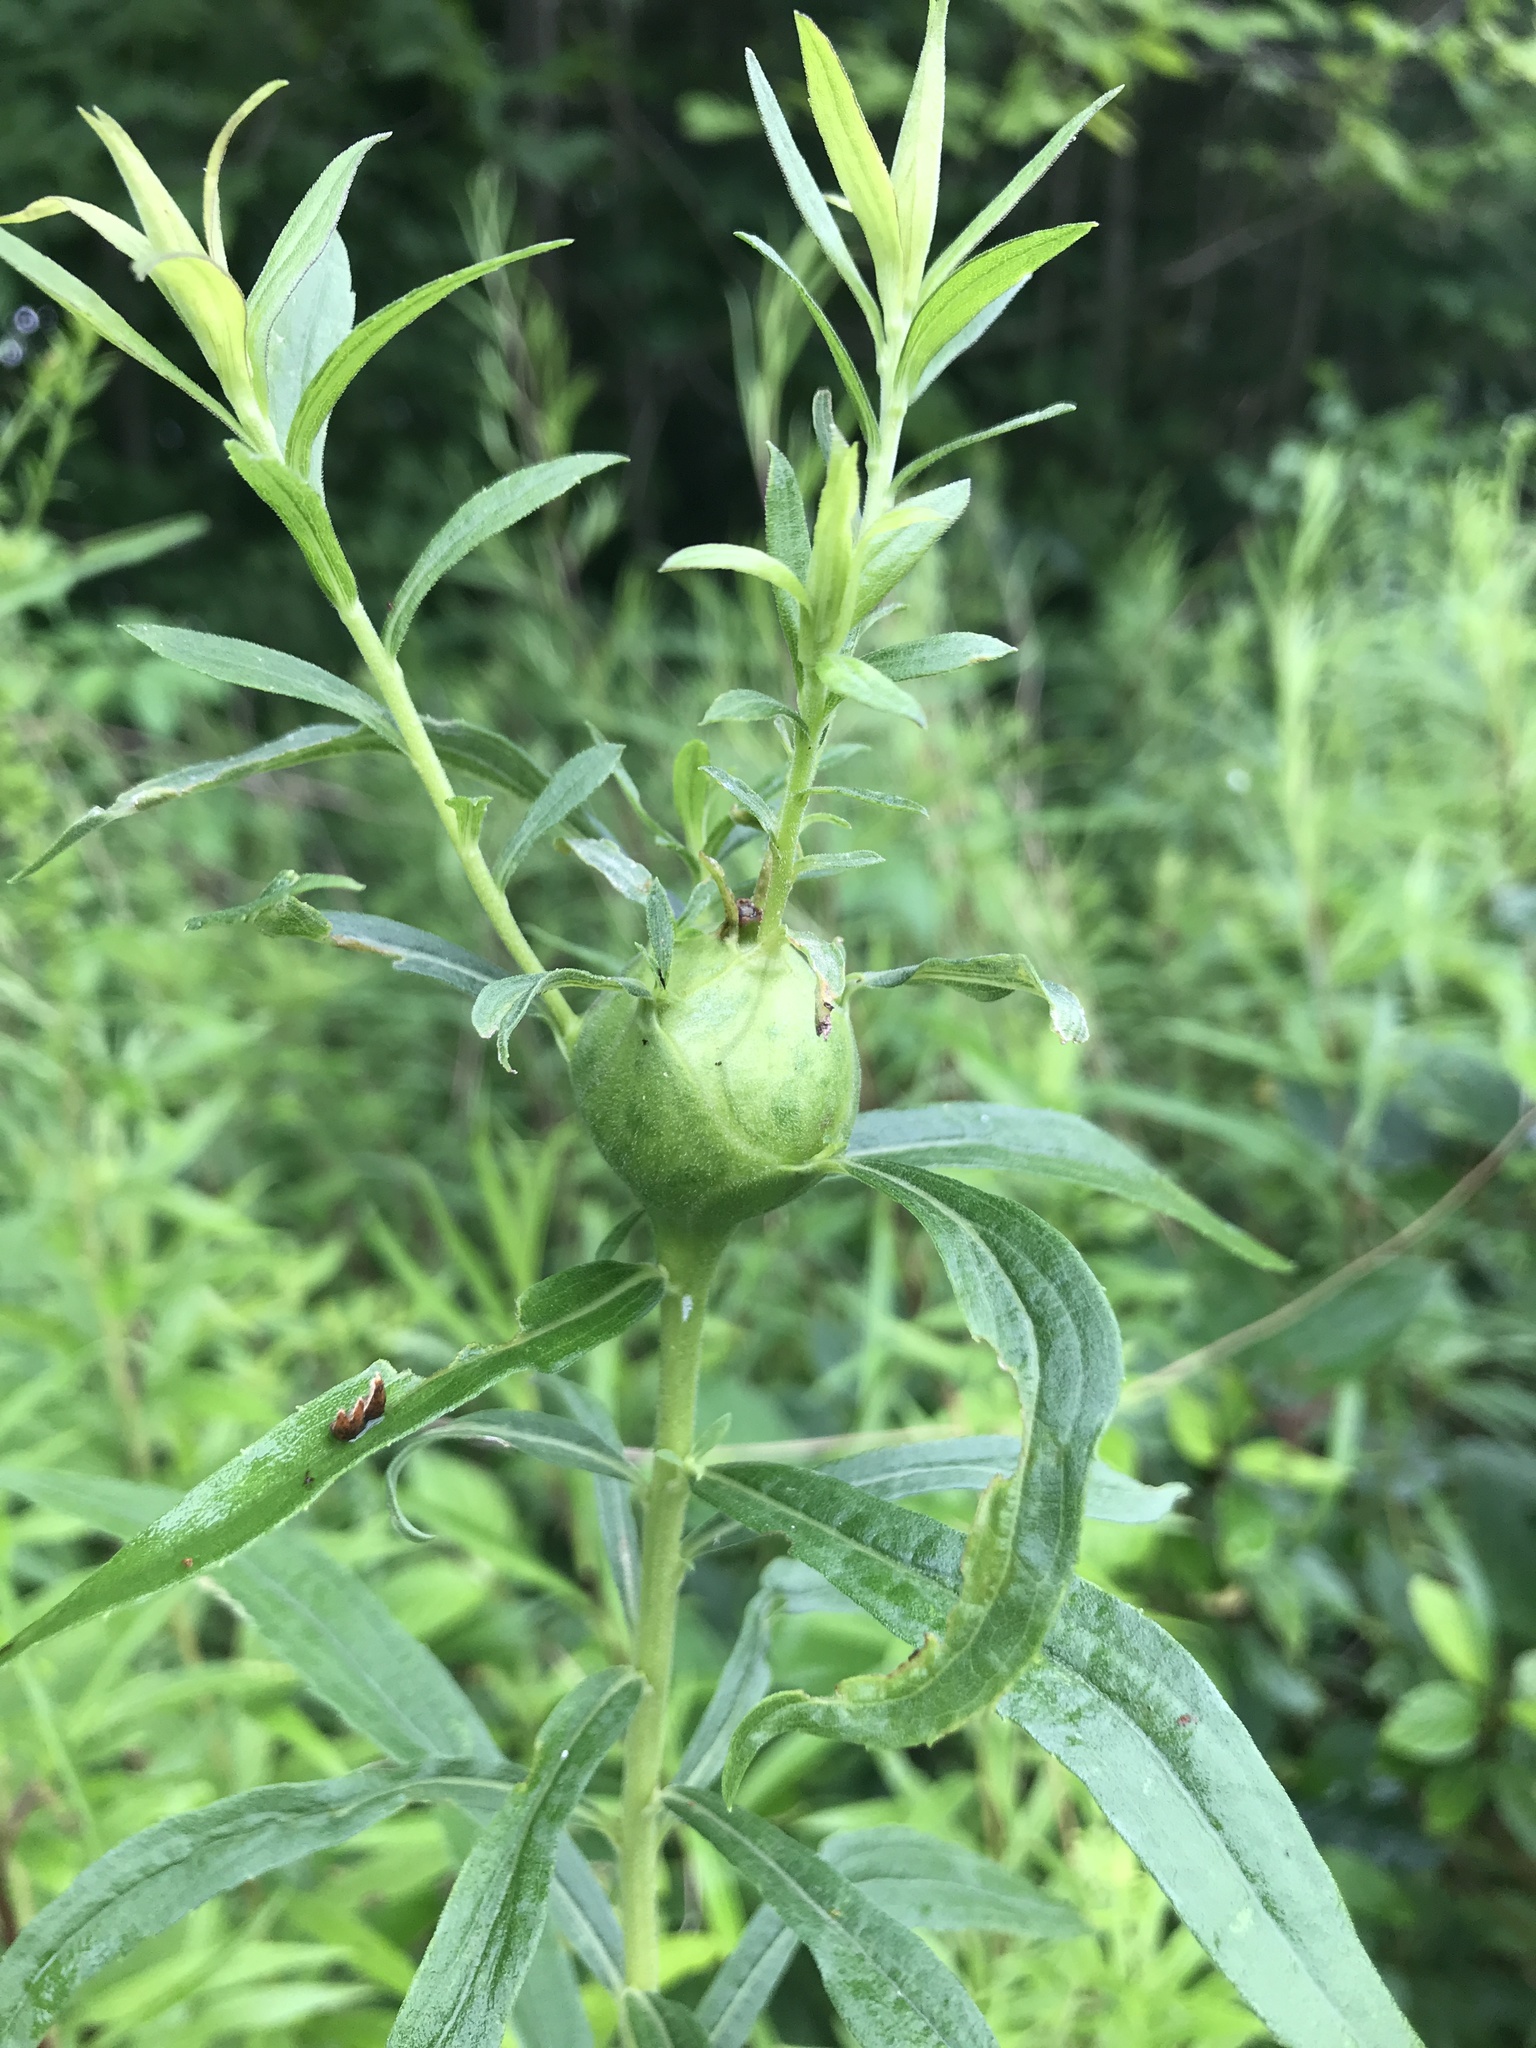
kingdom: Animalia
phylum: Arthropoda
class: Insecta
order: Diptera
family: Tephritidae
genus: Eurosta
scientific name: Eurosta solidaginis
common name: Goldenrod gall fly
